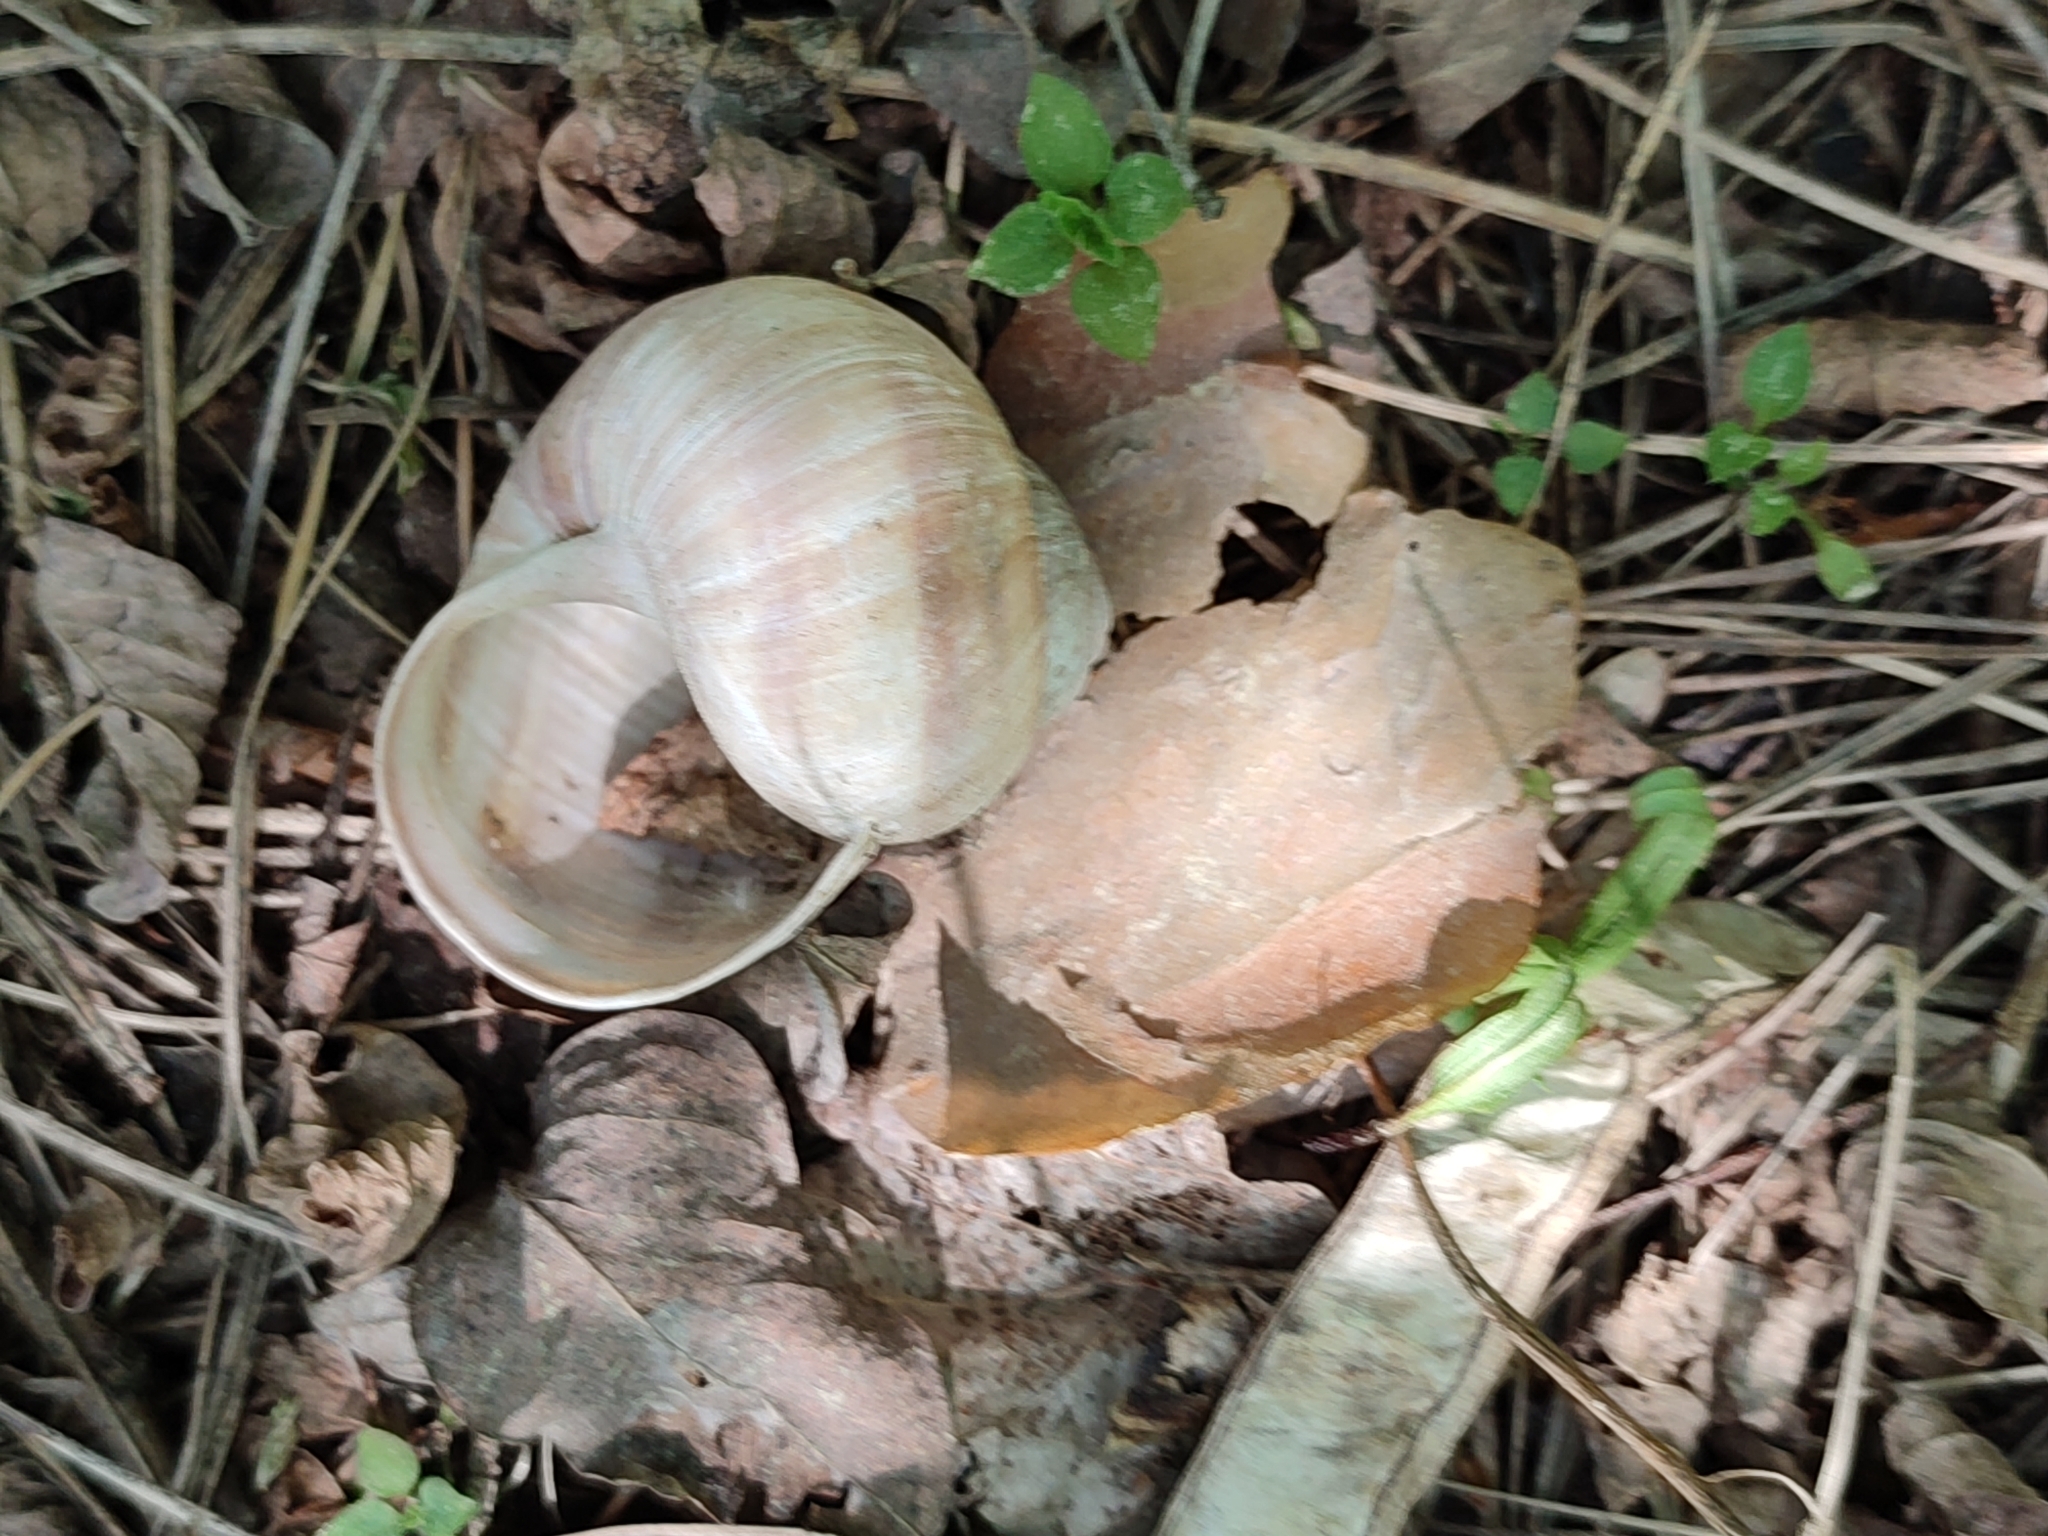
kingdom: Animalia
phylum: Mollusca
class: Gastropoda
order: Stylommatophora
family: Helicidae
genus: Helix
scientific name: Helix pomatia
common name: Roman snail
